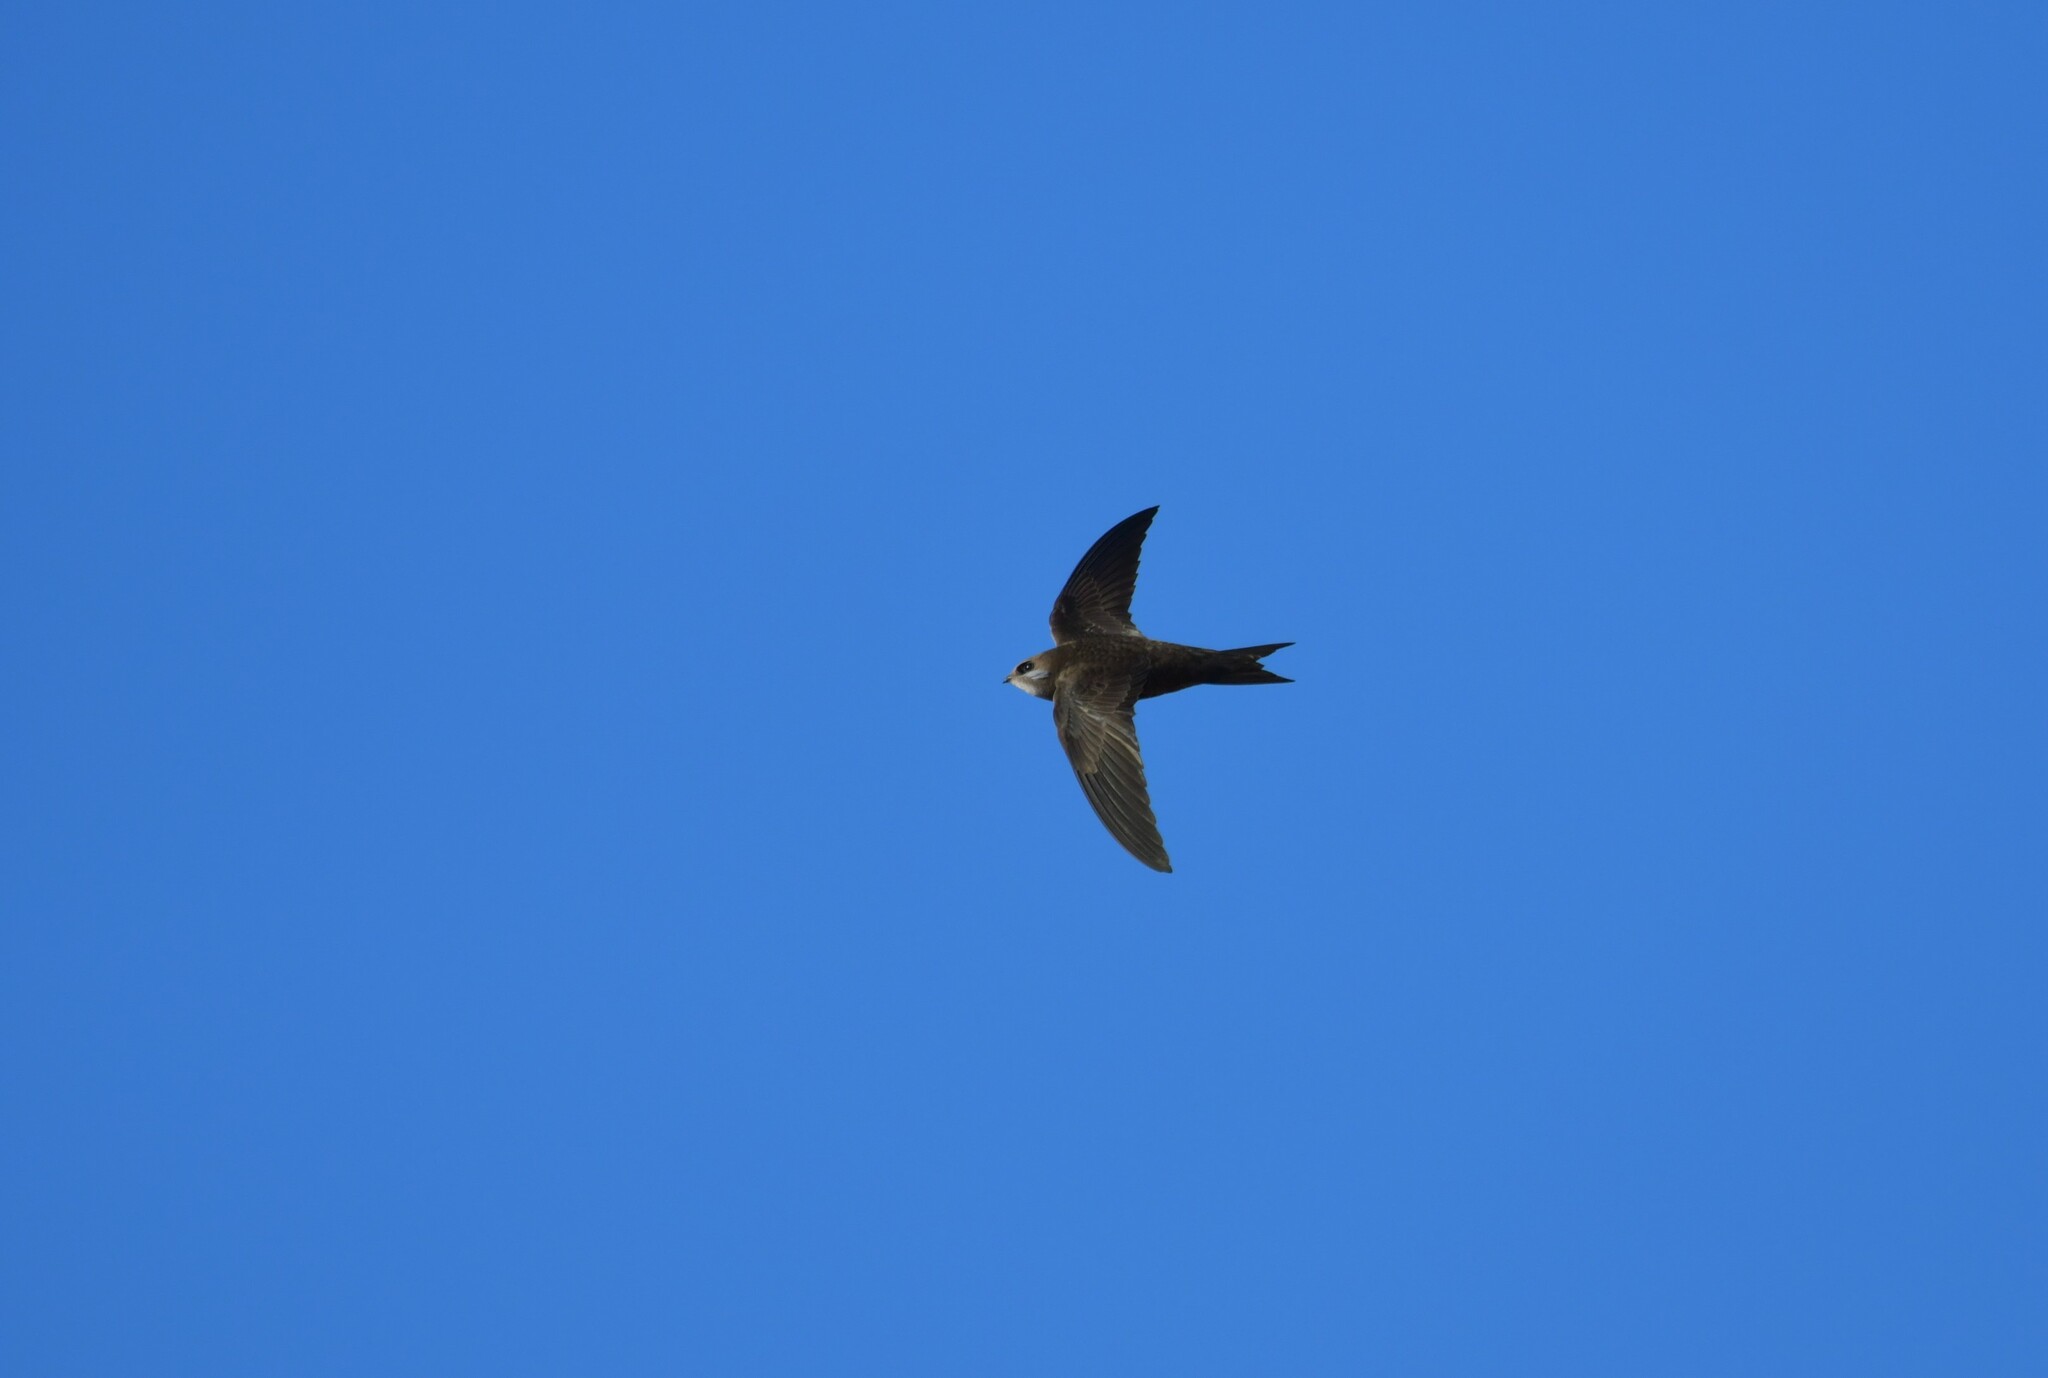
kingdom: Animalia
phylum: Chordata
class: Aves
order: Apodiformes
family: Apodidae
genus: Apus
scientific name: Apus pallidus
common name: Pallid swift
